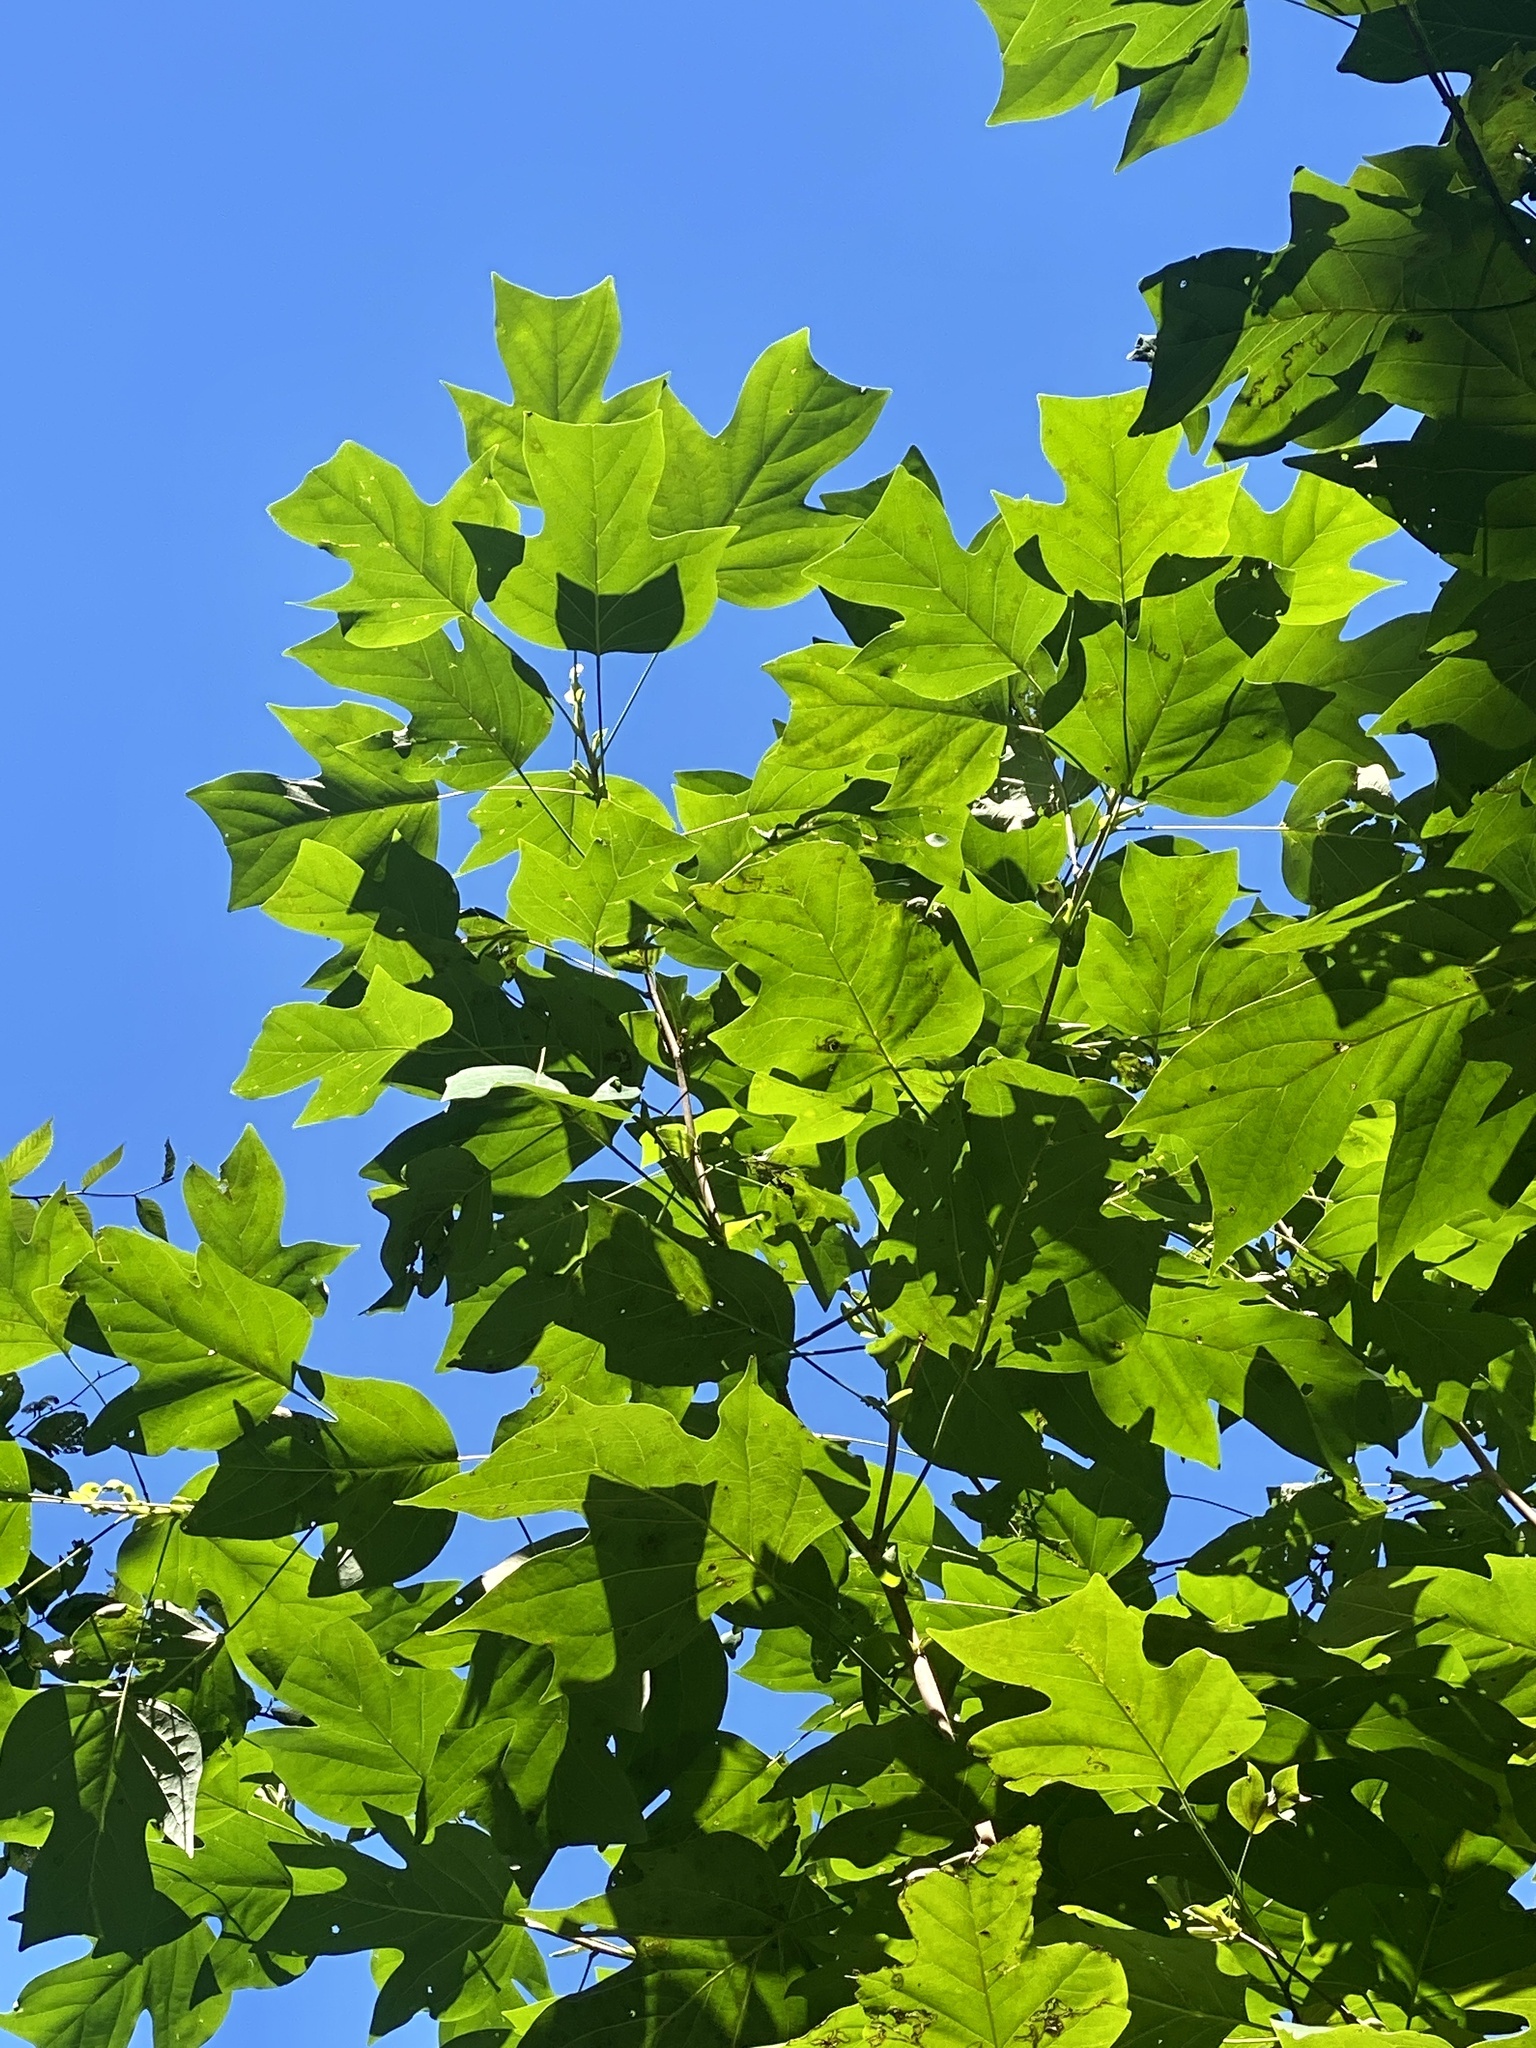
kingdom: Plantae
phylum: Tracheophyta
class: Magnoliopsida
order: Magnoliales
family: Magnoliaceae
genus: Liriodendron
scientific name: Liriodendron tulipifera
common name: Tulip tree
